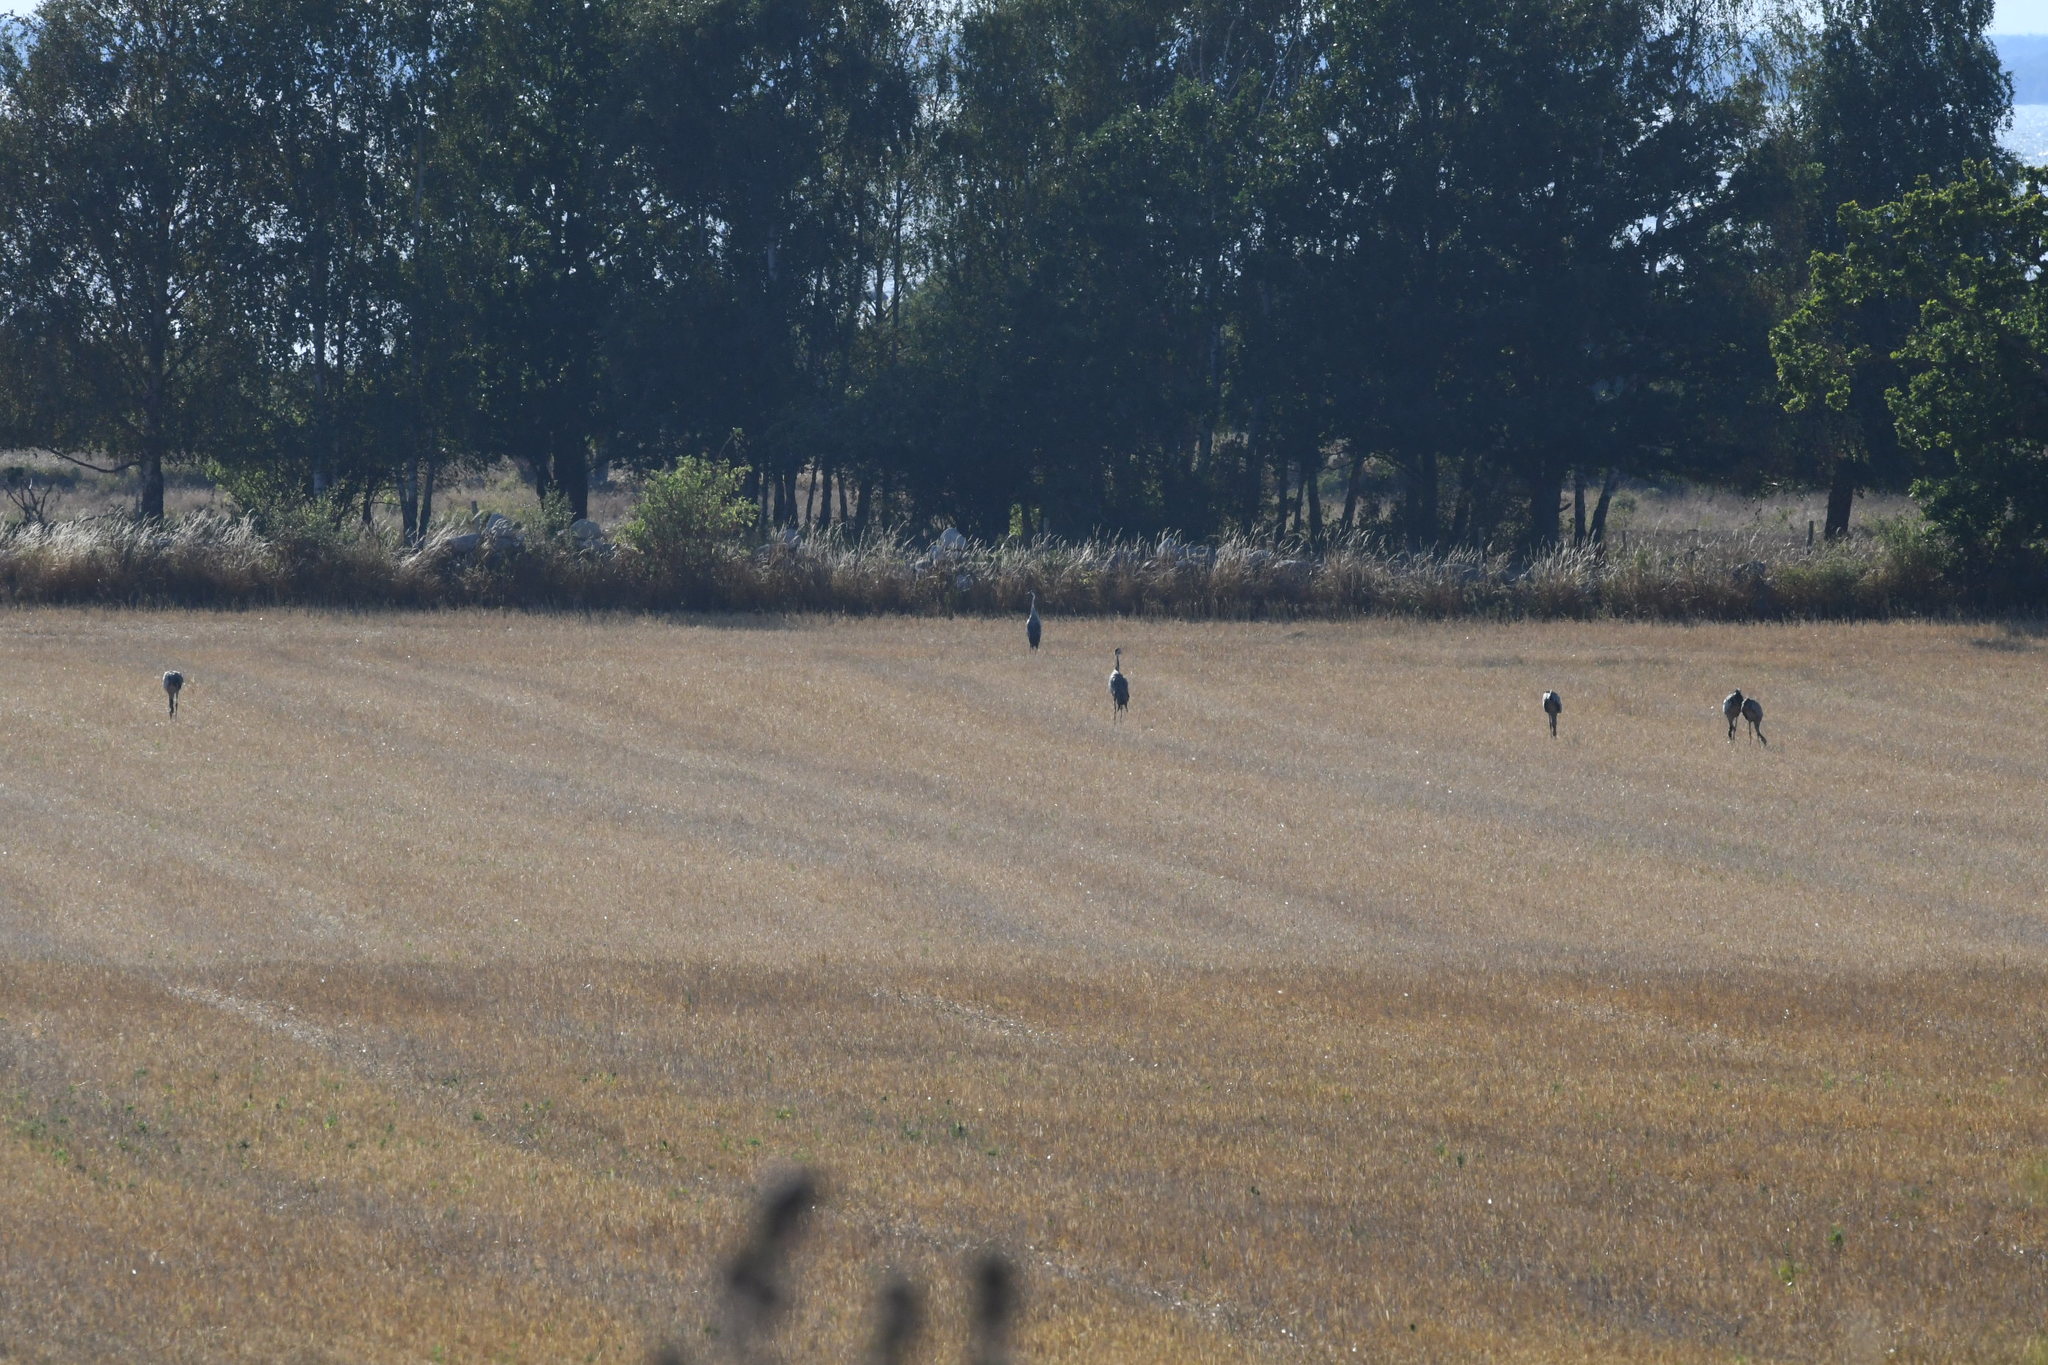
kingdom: Animalia
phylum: Chordata
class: Aves
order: Gruiformes
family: Gruidae
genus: Grus
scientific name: Grus grus
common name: Common crane
